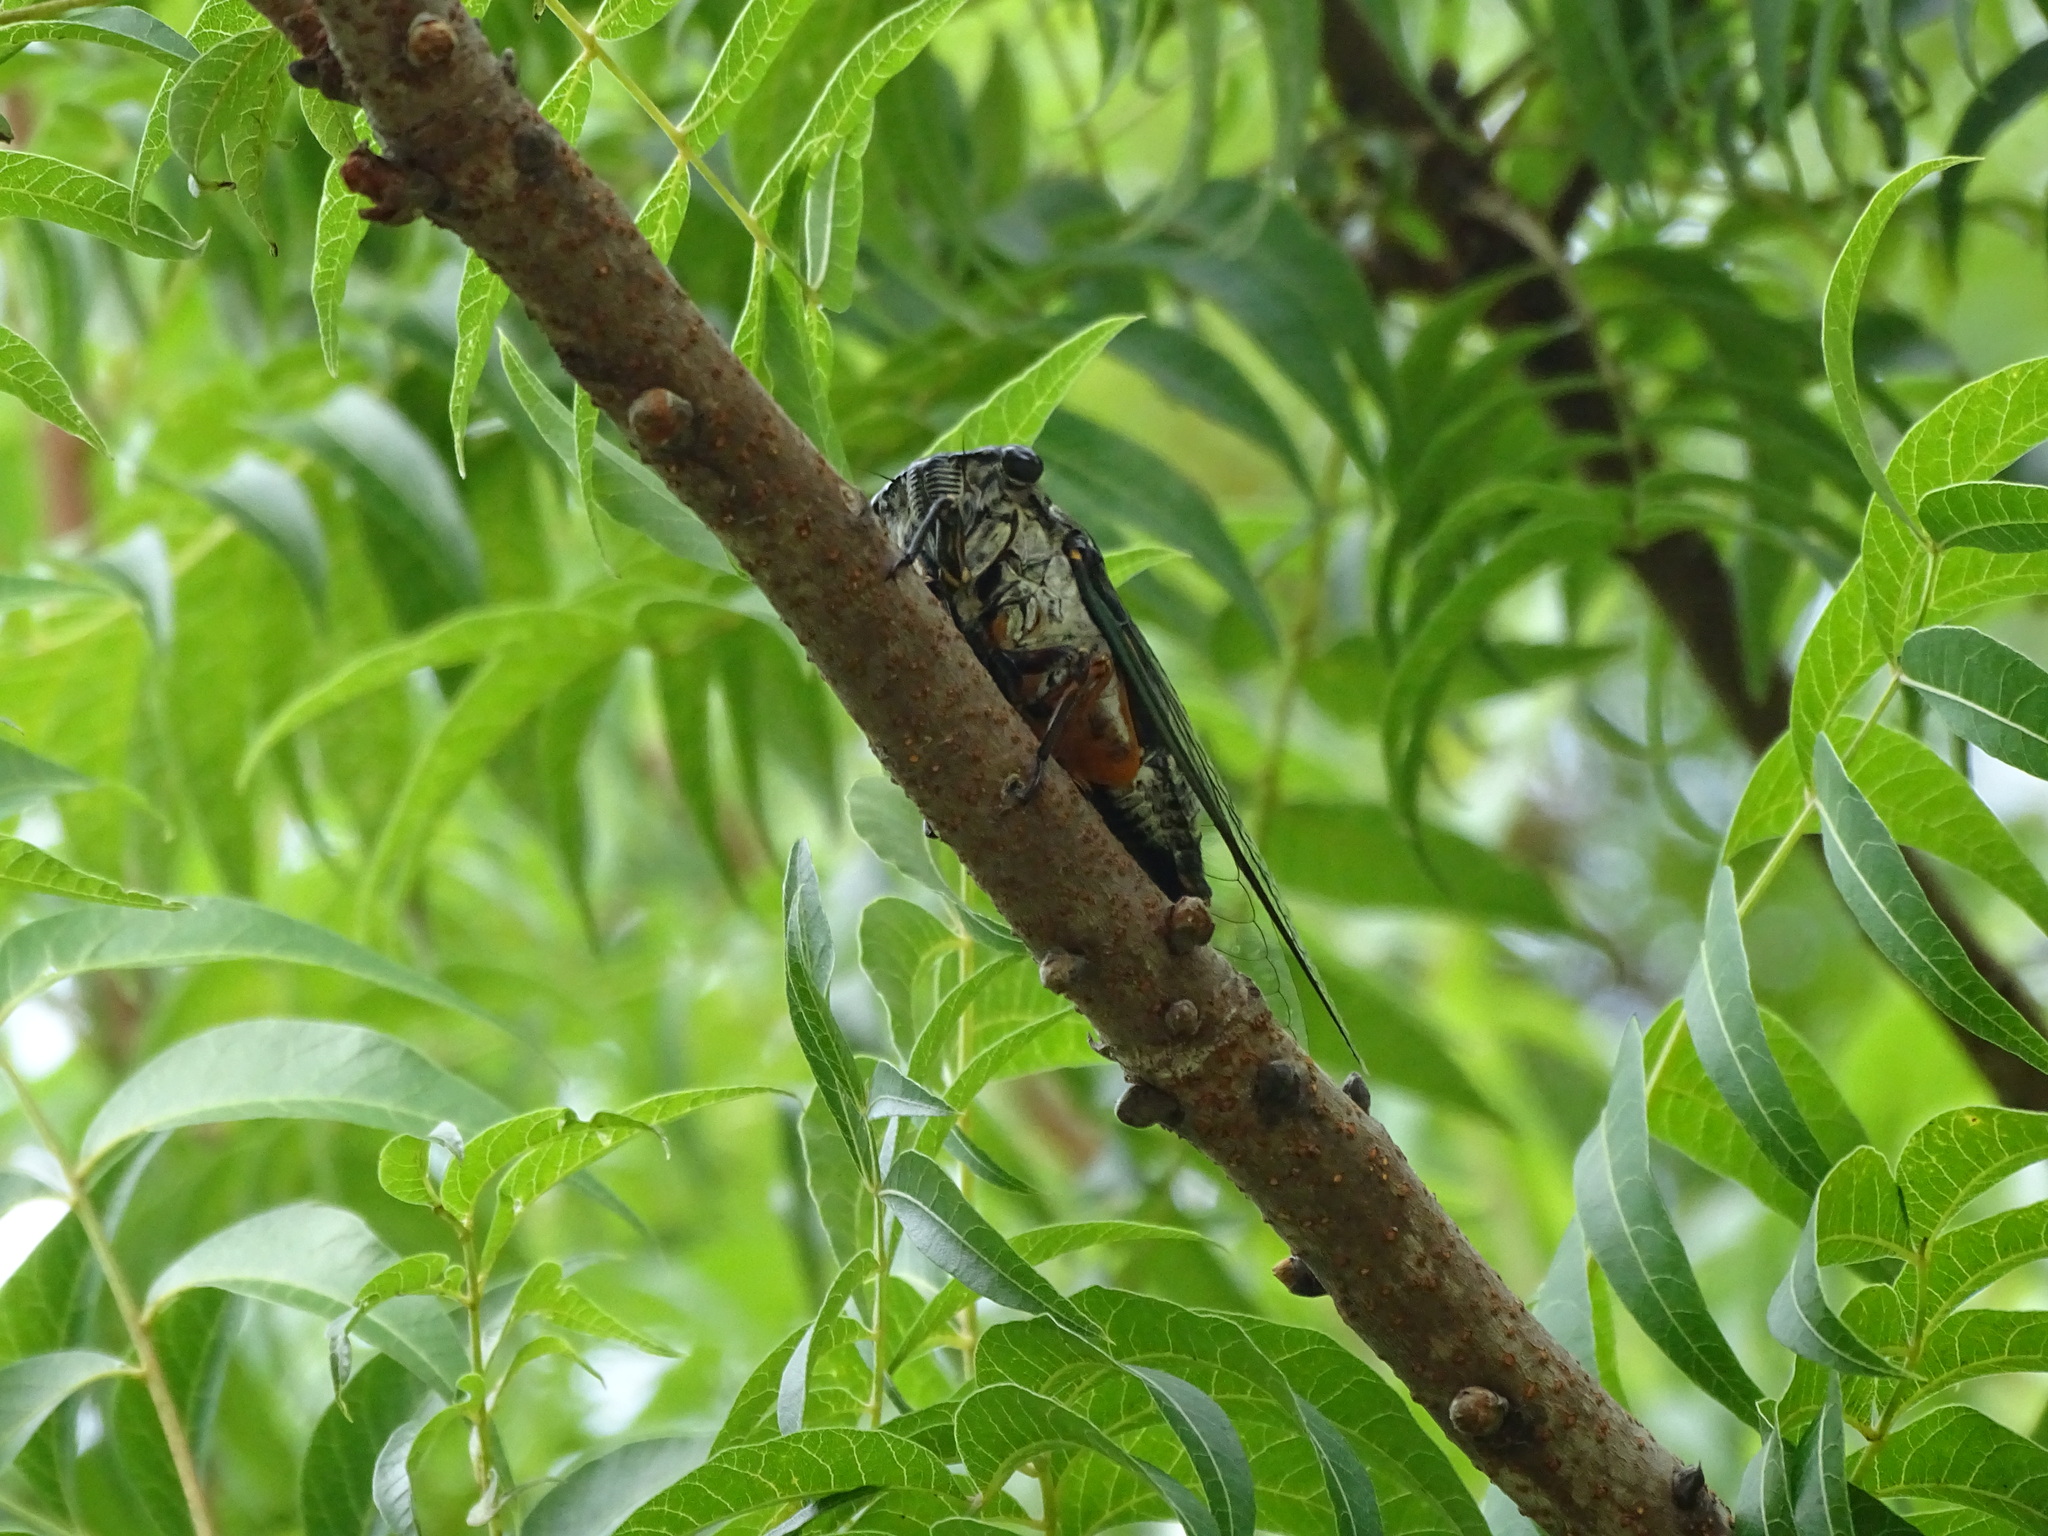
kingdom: Animalia
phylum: Arthropoda
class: Insecta
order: Hemiptera
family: Cicadidae
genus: Cryptotympana
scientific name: Cryptotympana takasagona
